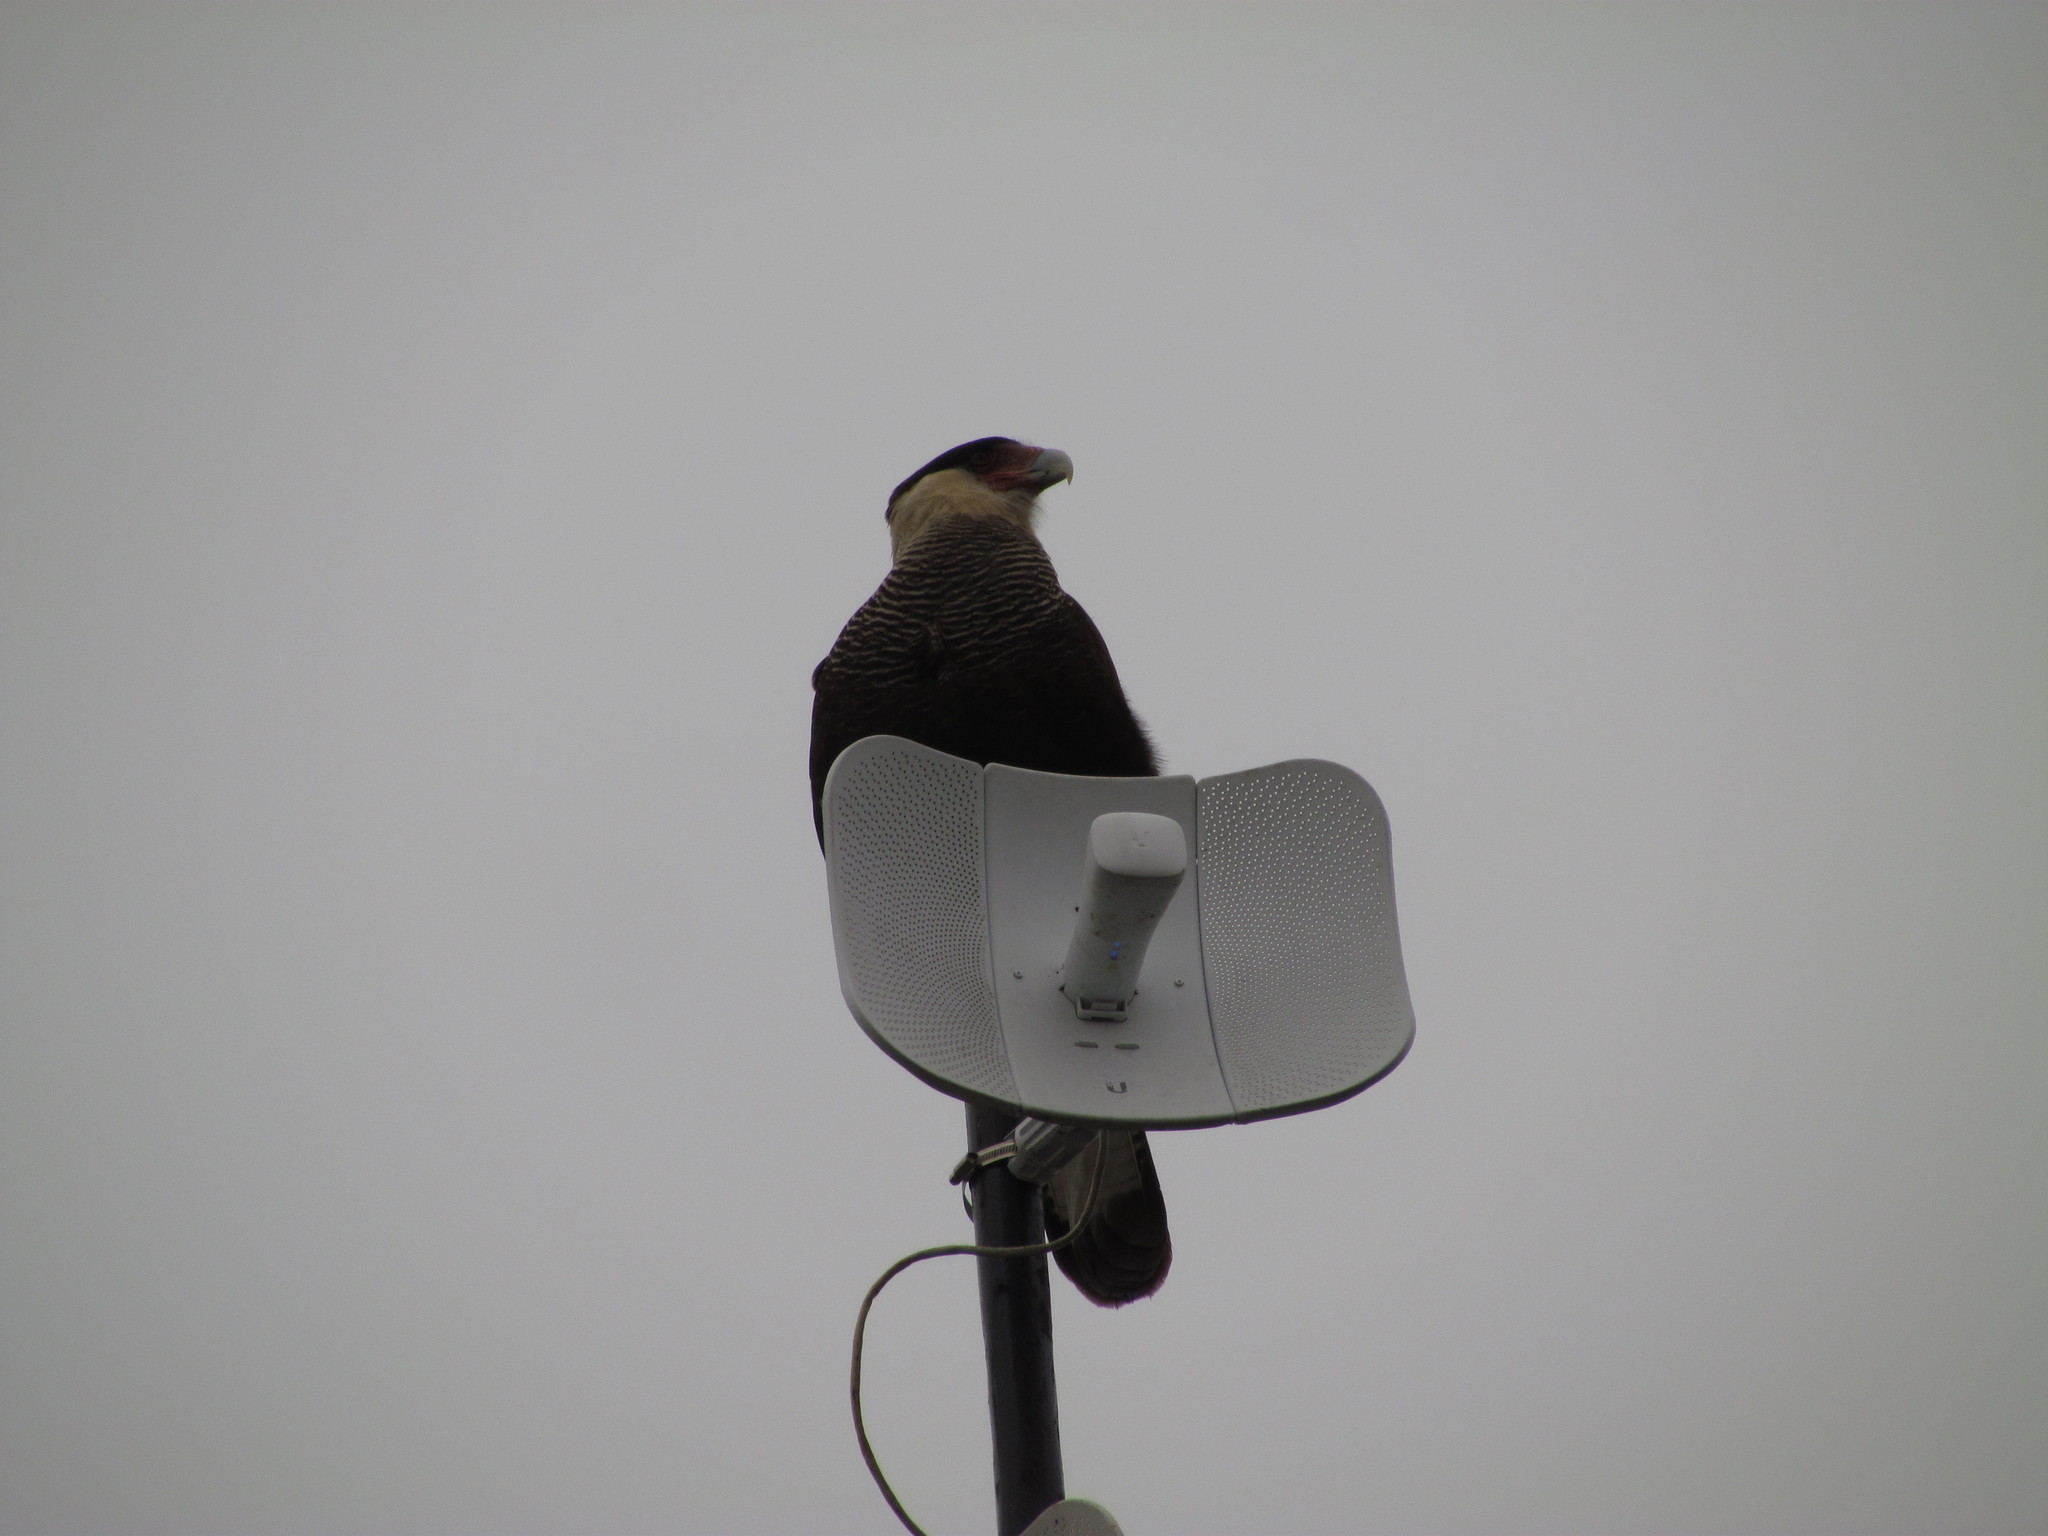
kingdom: Animalia
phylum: Chordata
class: Aves
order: Falconiformes
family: Falconidae
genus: Caracara
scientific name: Caracara plancus
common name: Southern caracara
